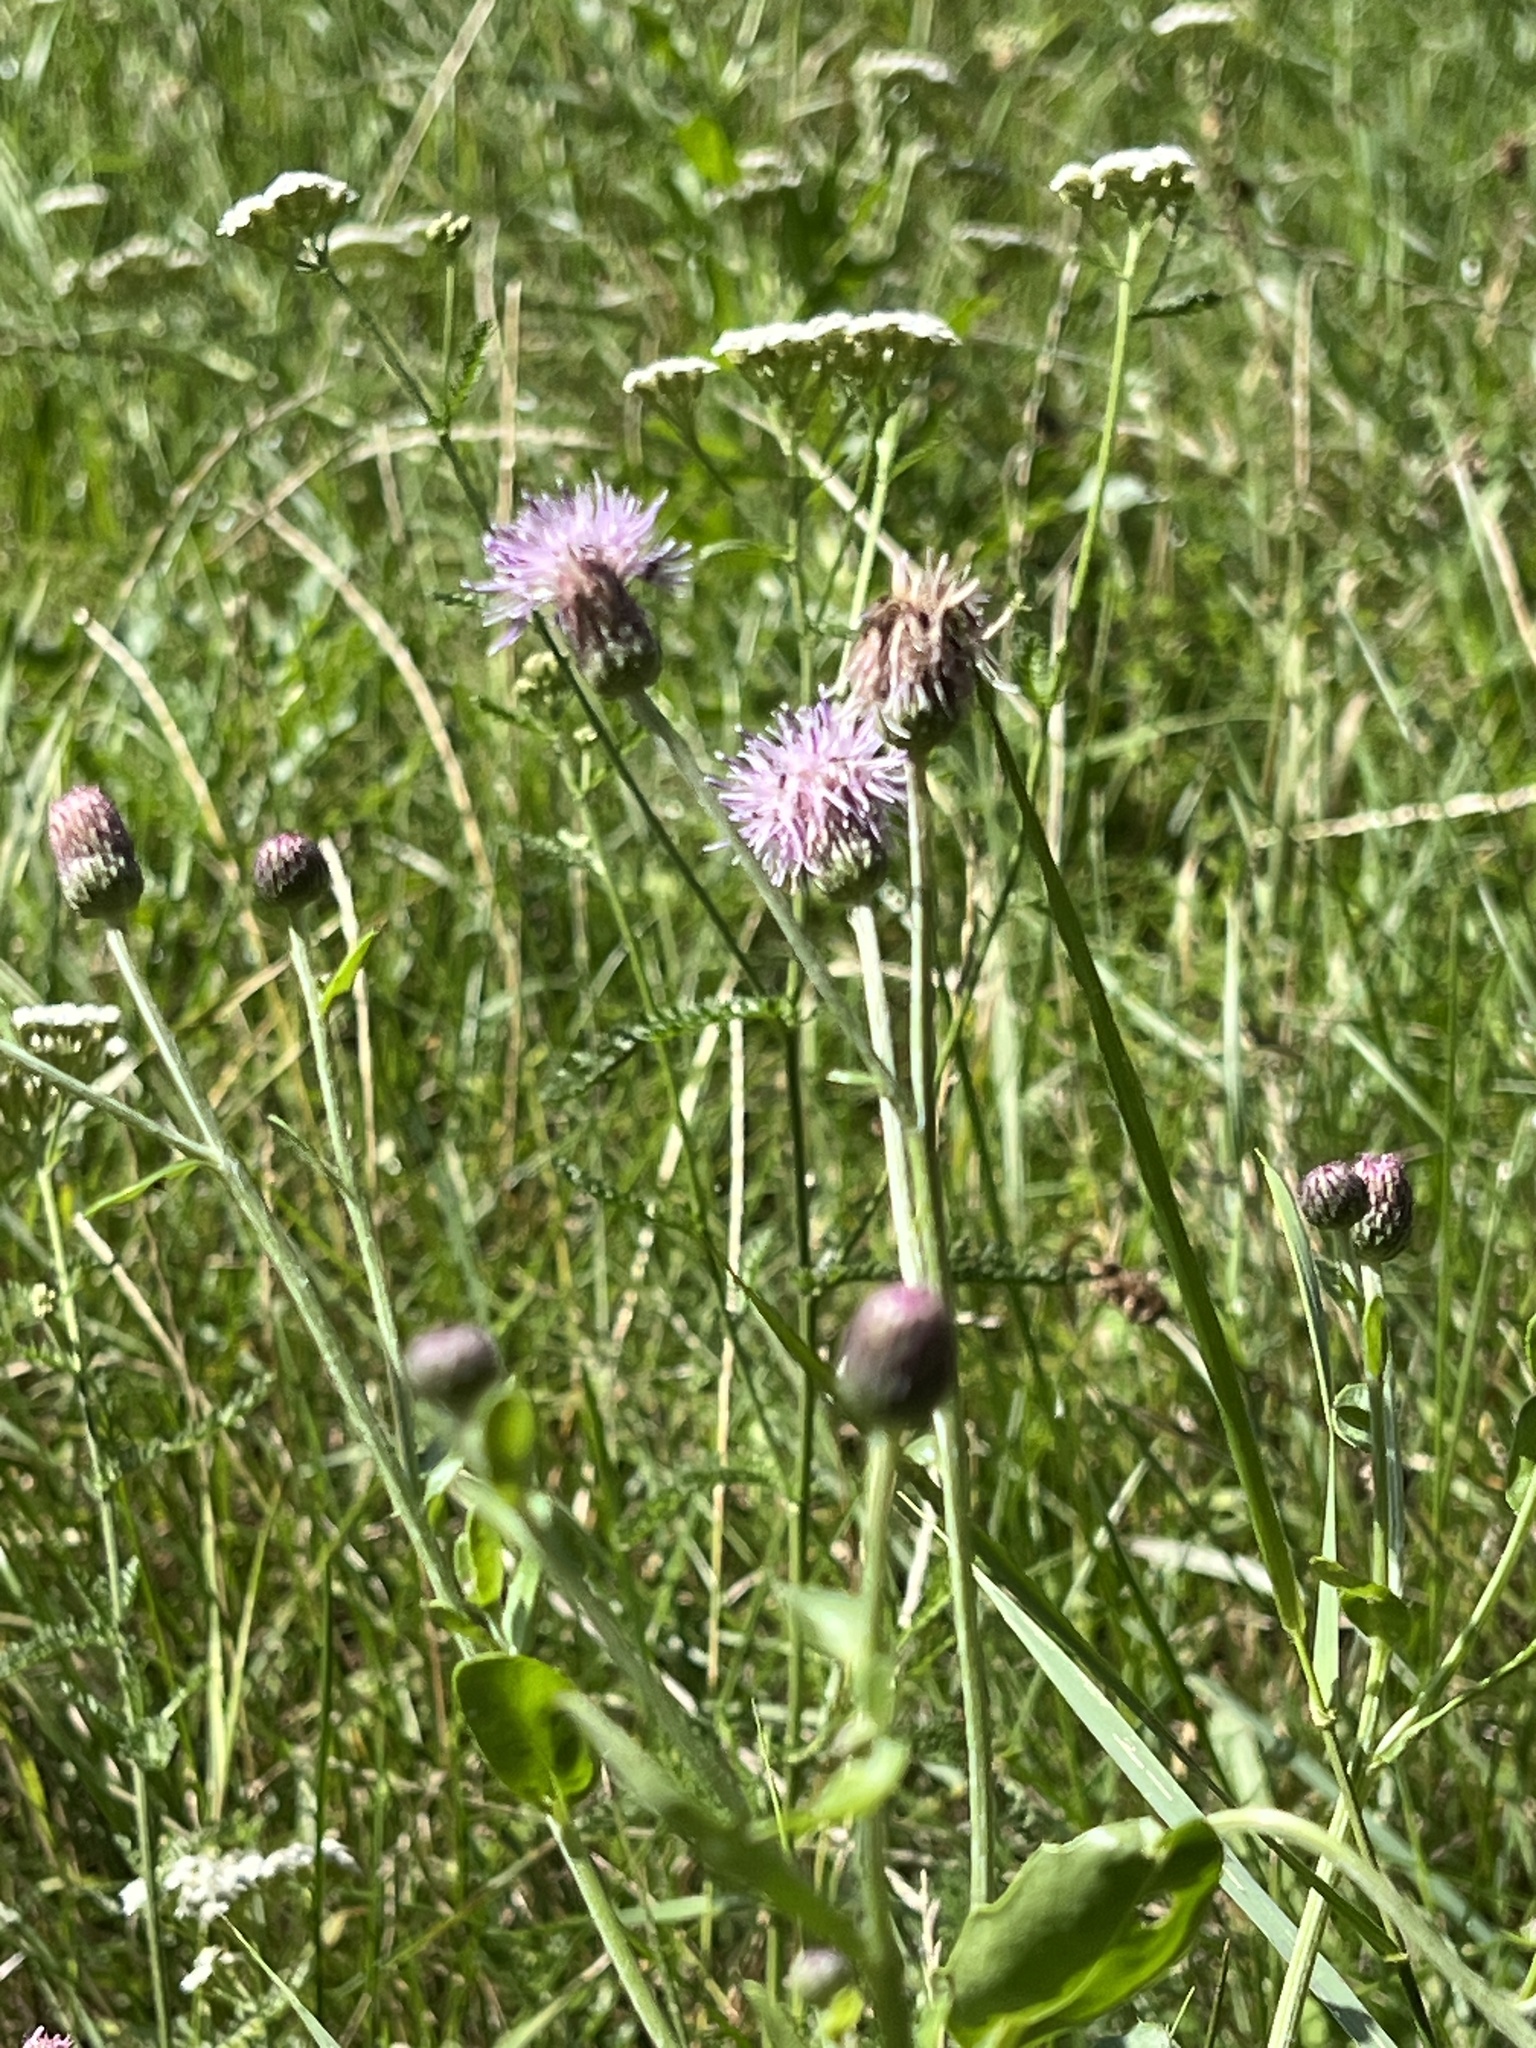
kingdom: Plantae
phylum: Tracheophyta
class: Magnoliopsida
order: Asterales
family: Asteraceae
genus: Cirsium
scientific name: Cirsium arvense
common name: Creeping thistle
